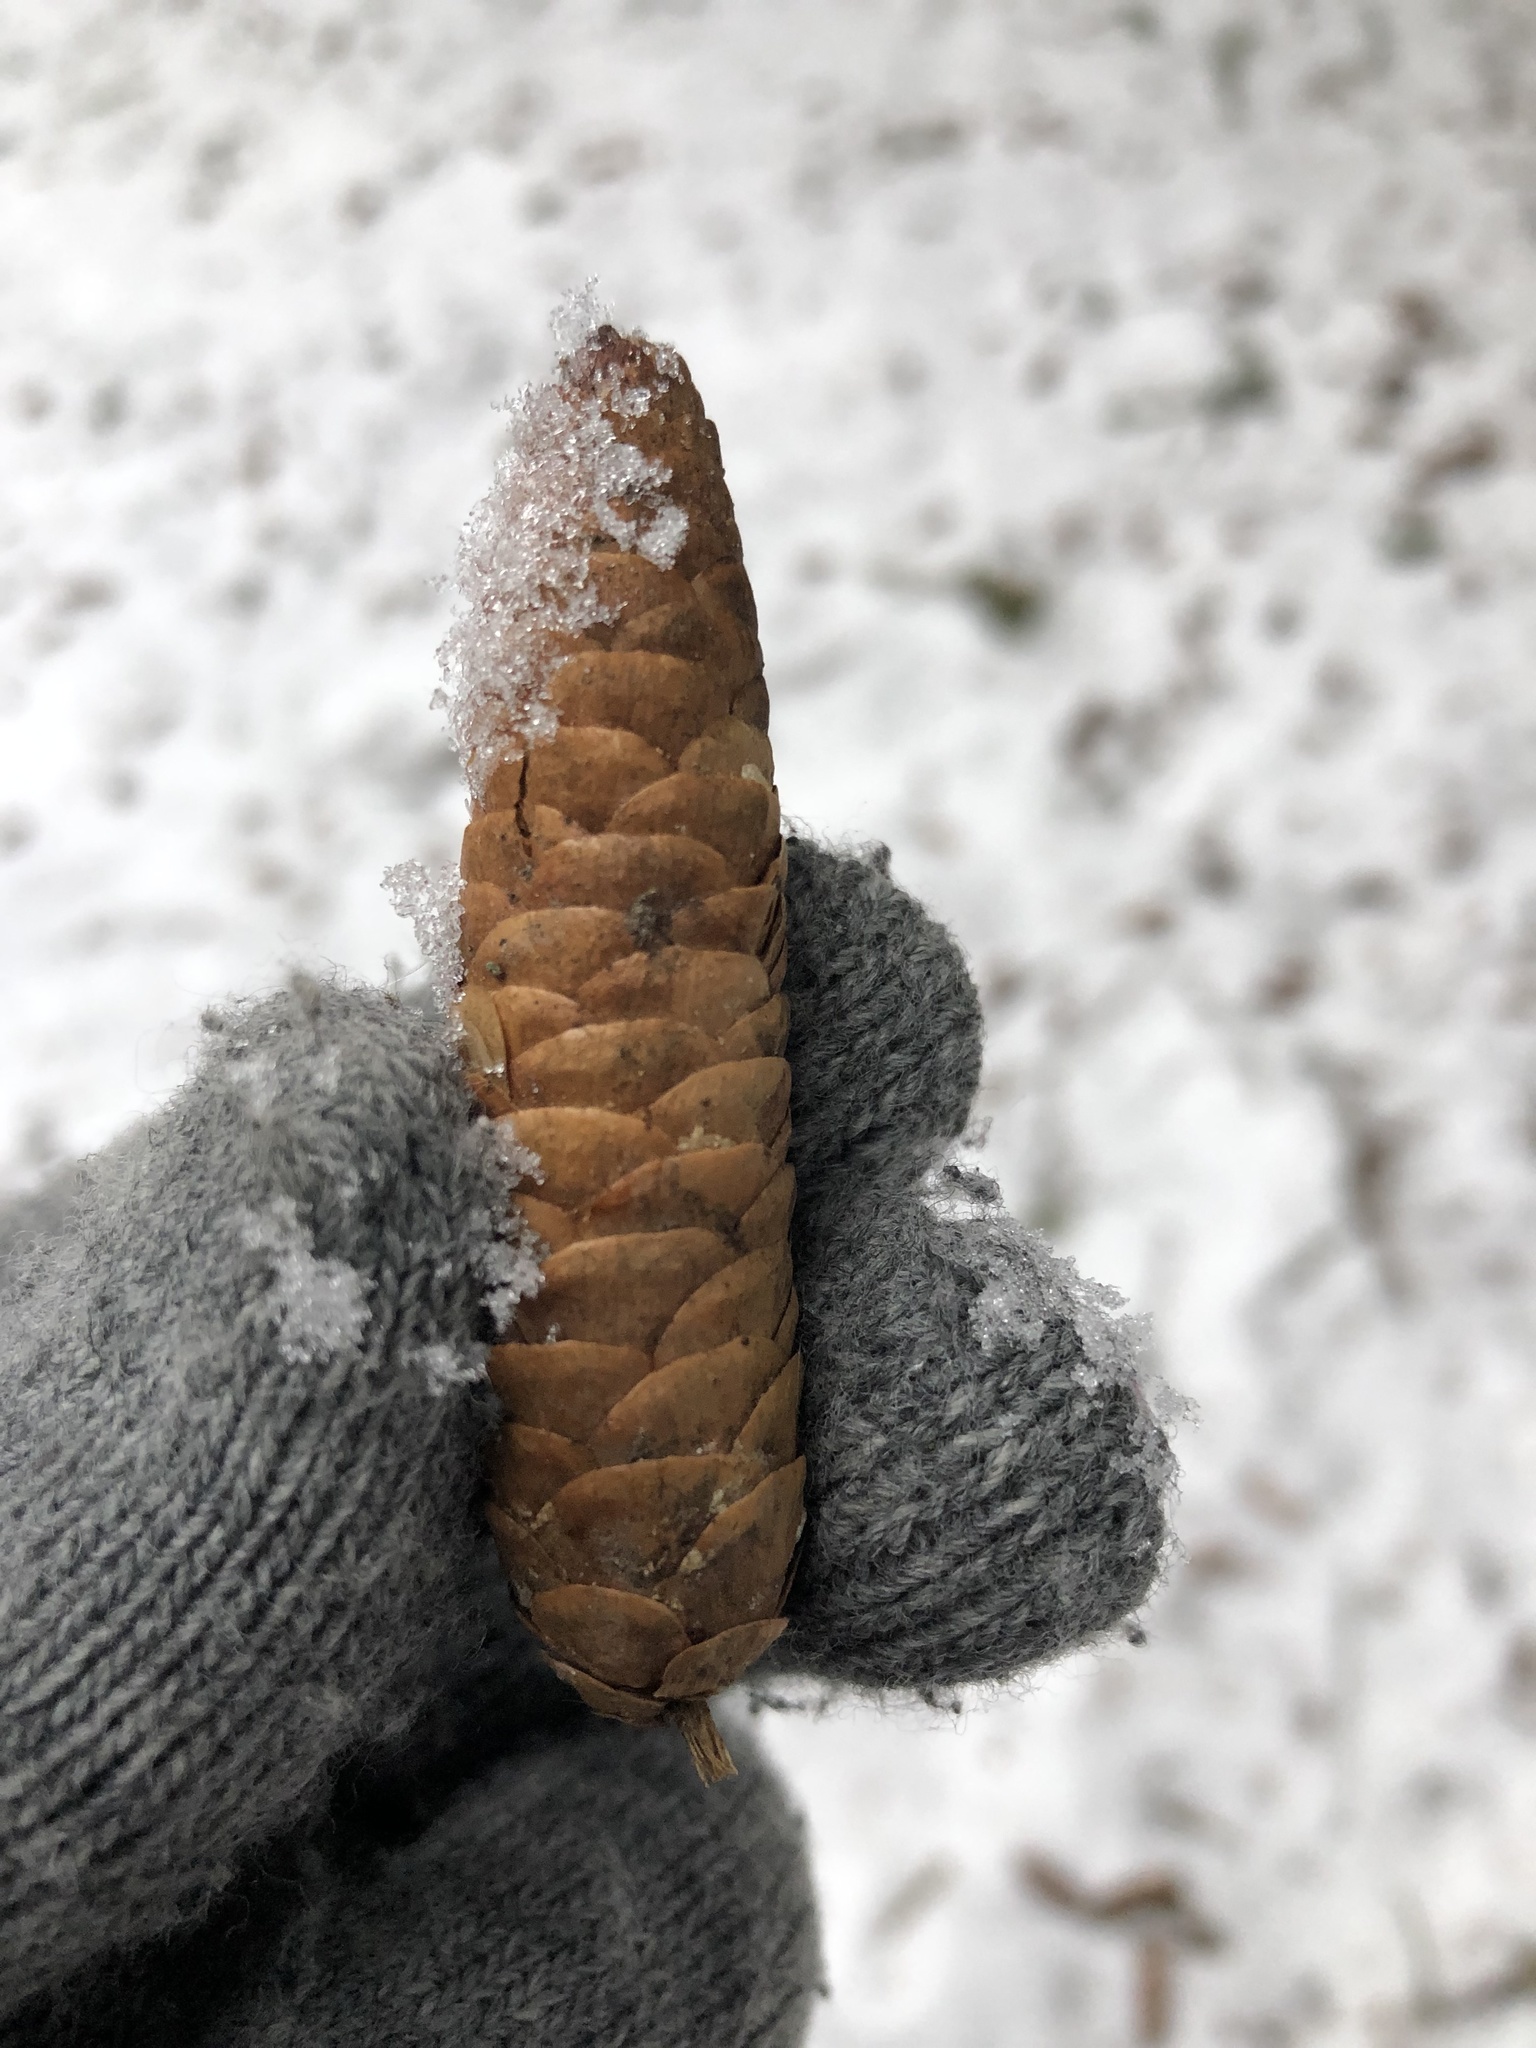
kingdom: Plantae
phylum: Tracheophyta
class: Pinopsida
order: Pinales
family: Pinaceae
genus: Picea
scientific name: Picea glauca
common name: White spruce
